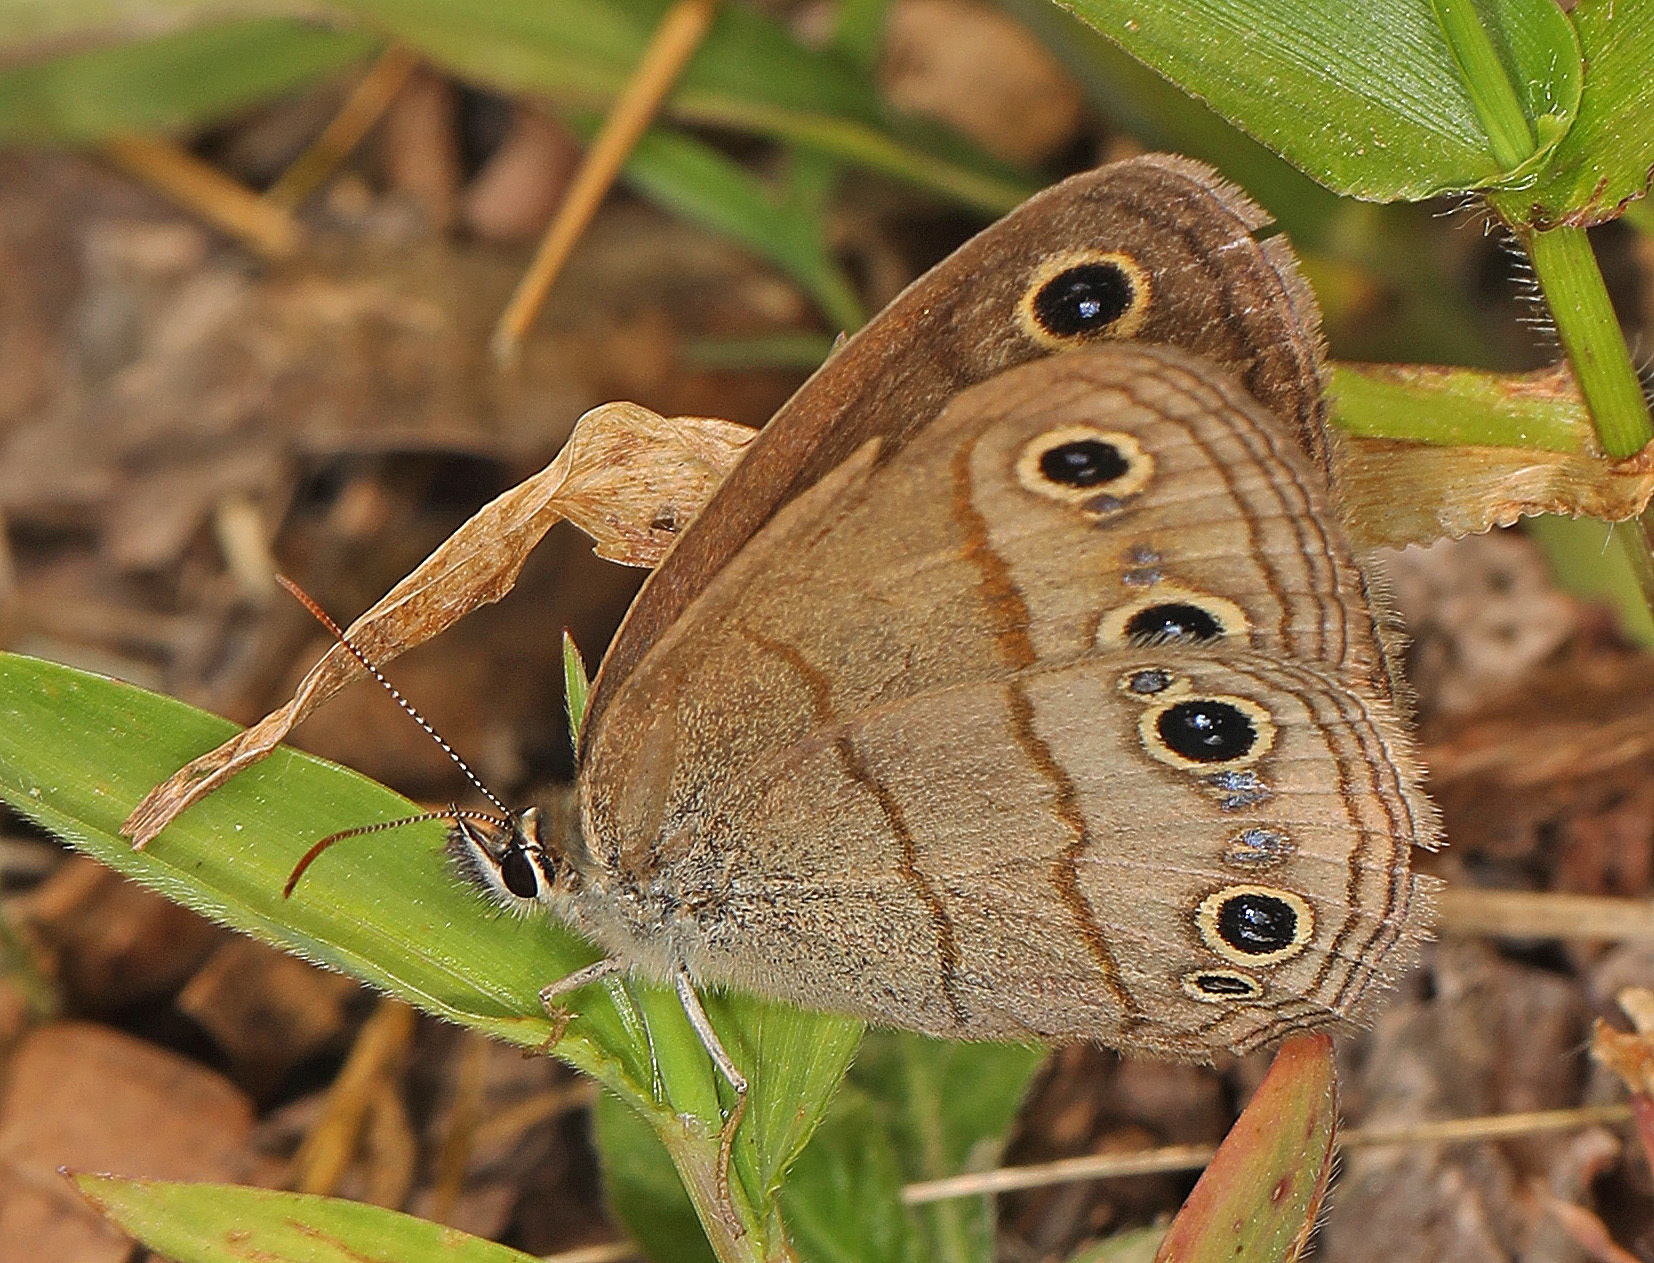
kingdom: Animalia
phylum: Arthropoda
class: Insecta
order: Lepidoptera
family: Nymphalidae
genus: Euptychia
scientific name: Euptychia cymela
